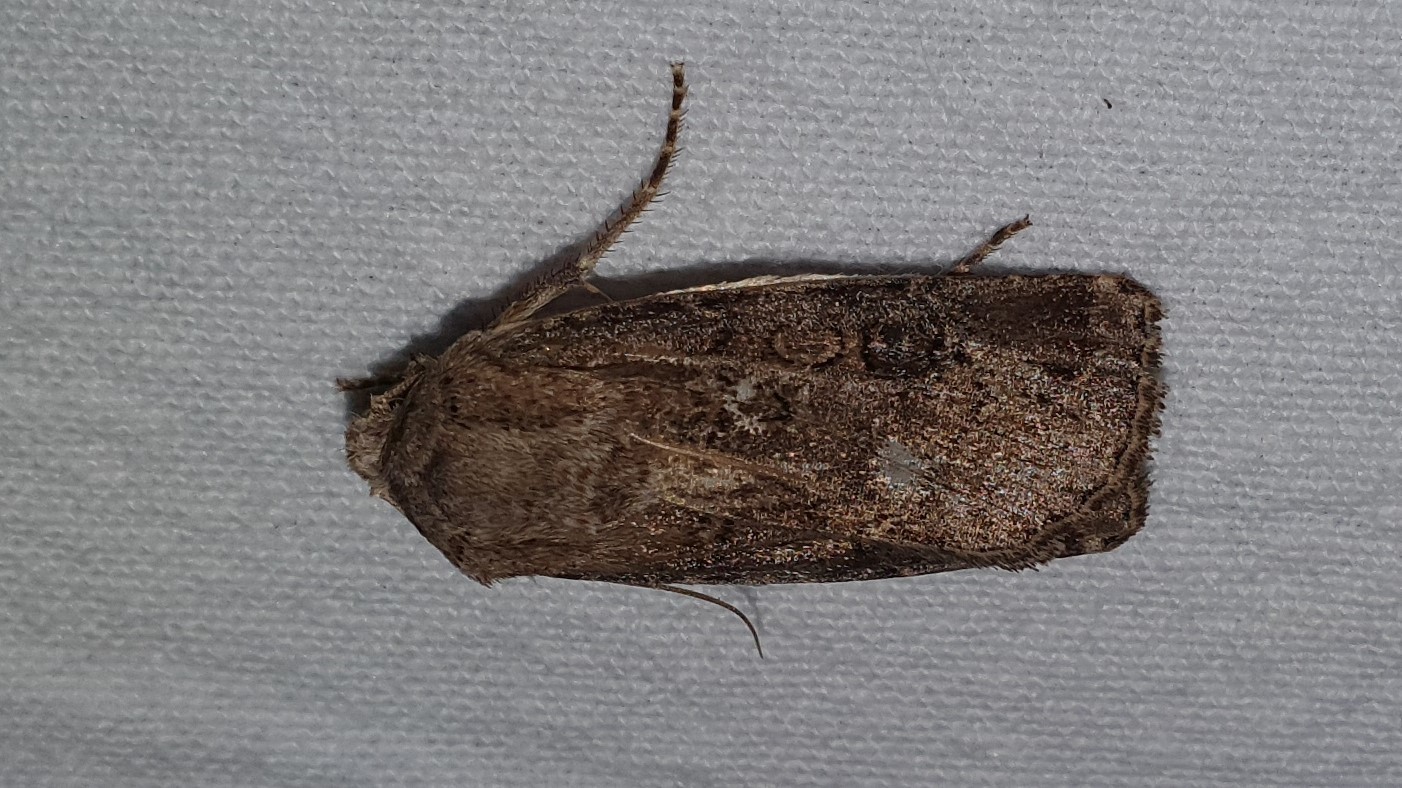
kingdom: Animalia
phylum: Arthropoda
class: Insecta
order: Lepidoptera
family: Noctuidae
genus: Agrotis
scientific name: Agrotis segetum
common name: Turnip moth
